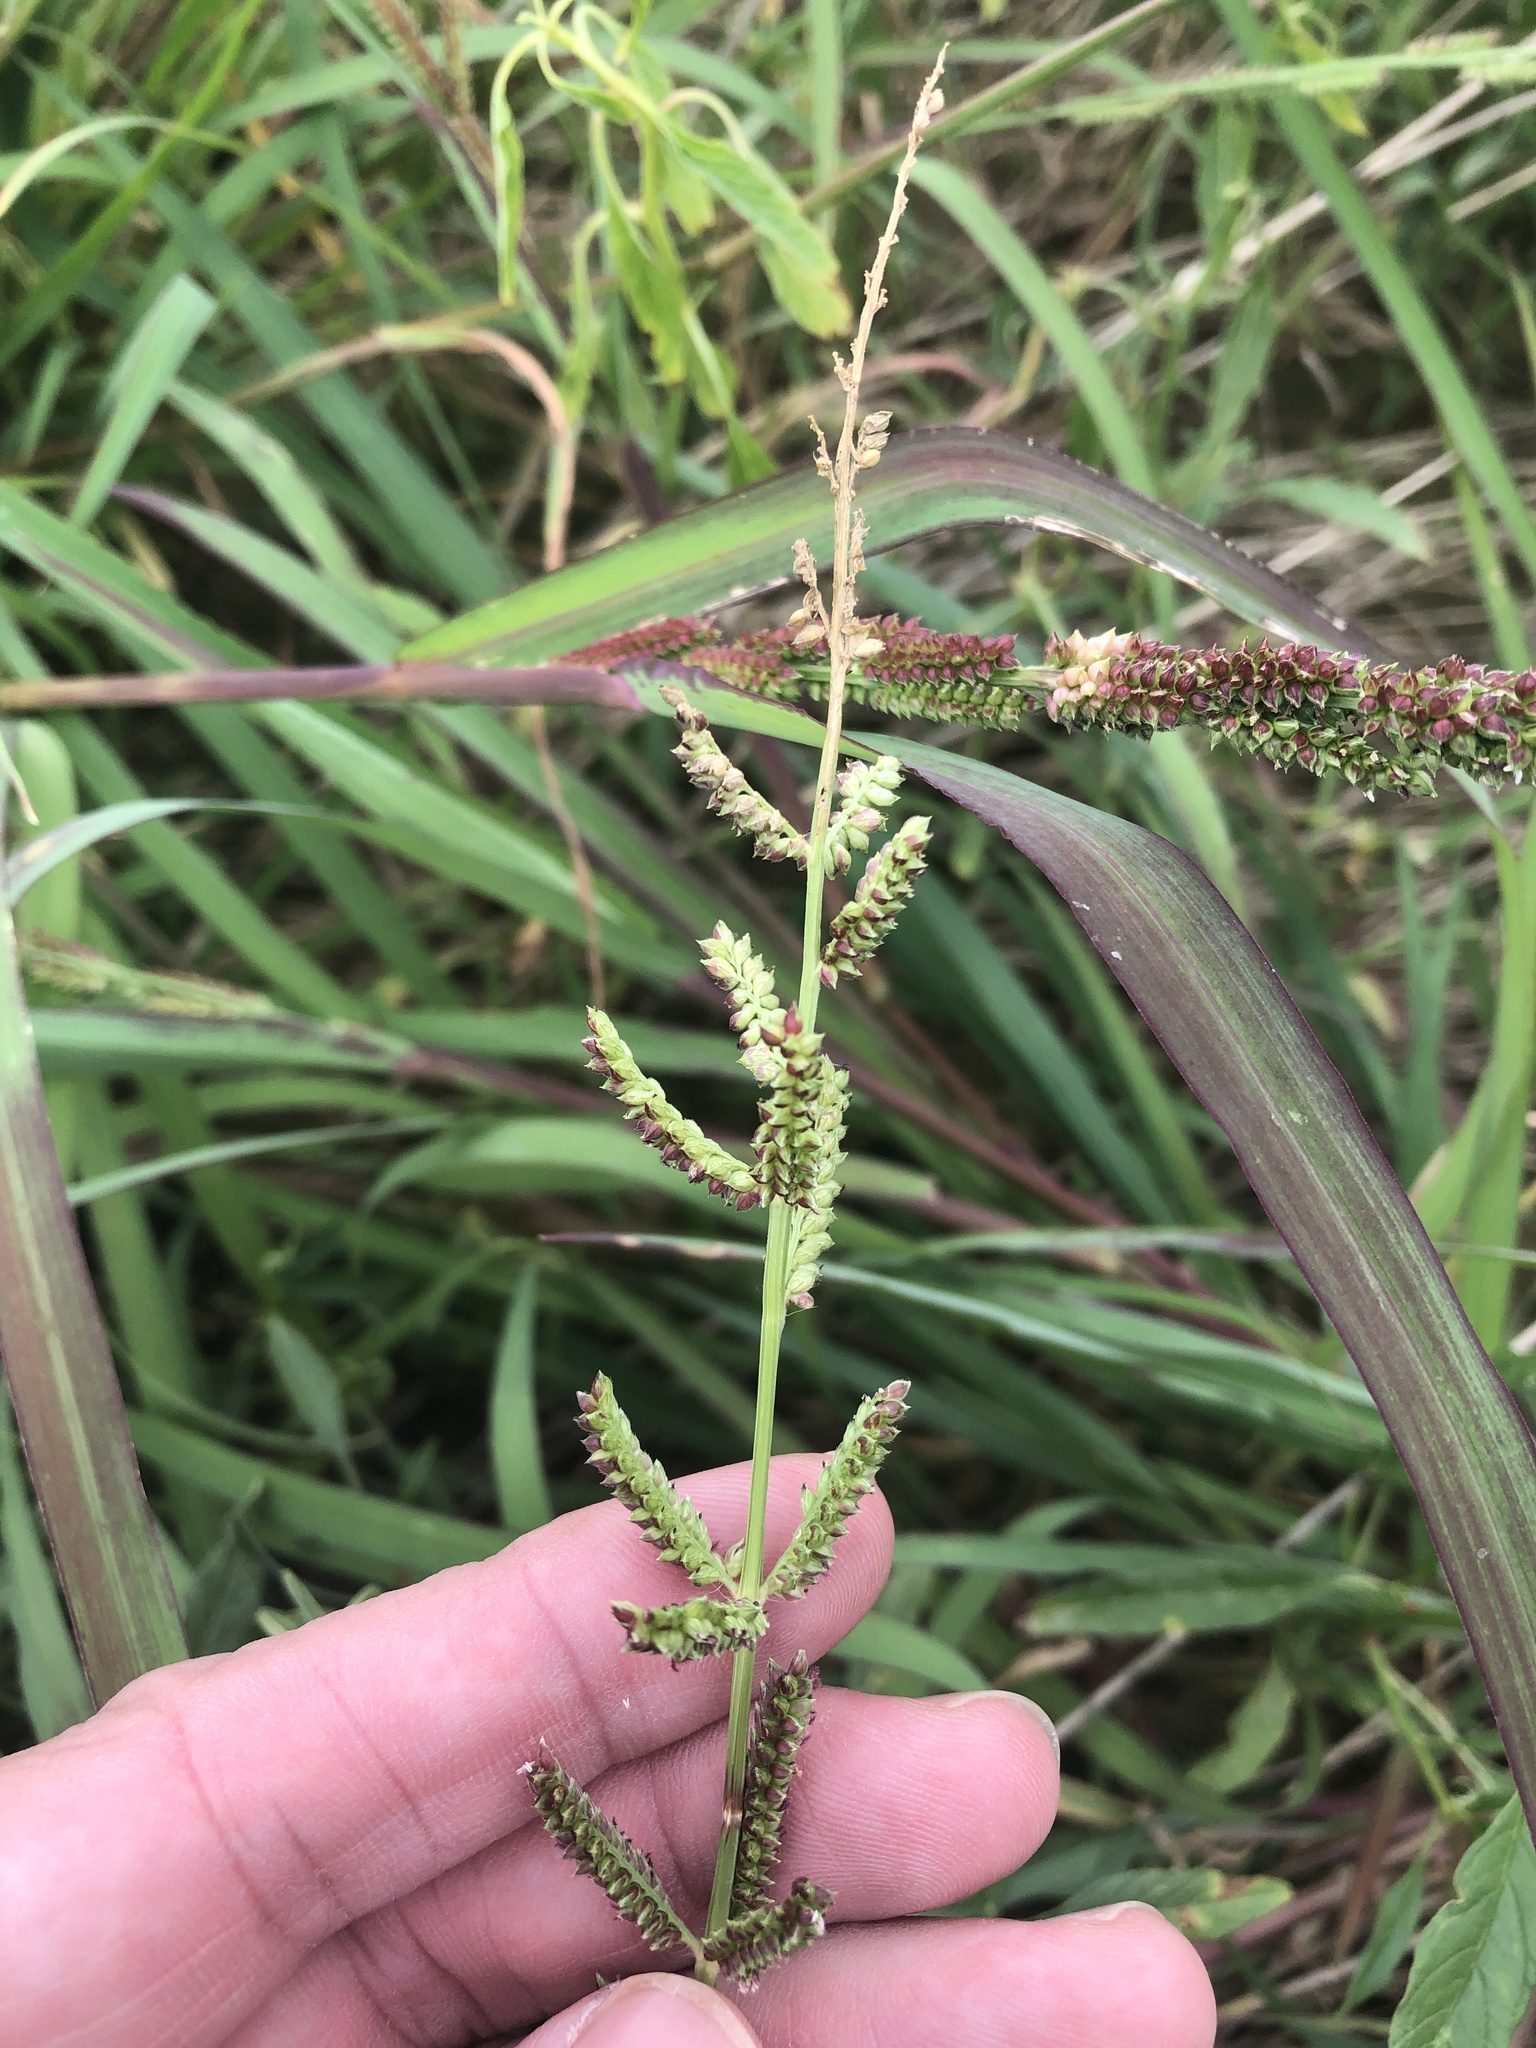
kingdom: Plantae
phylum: Tracheophyta
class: Liliopsida
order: Poales
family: Poaceae
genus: Echinochloa
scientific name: Echinochloa colonum
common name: Jungle rice
